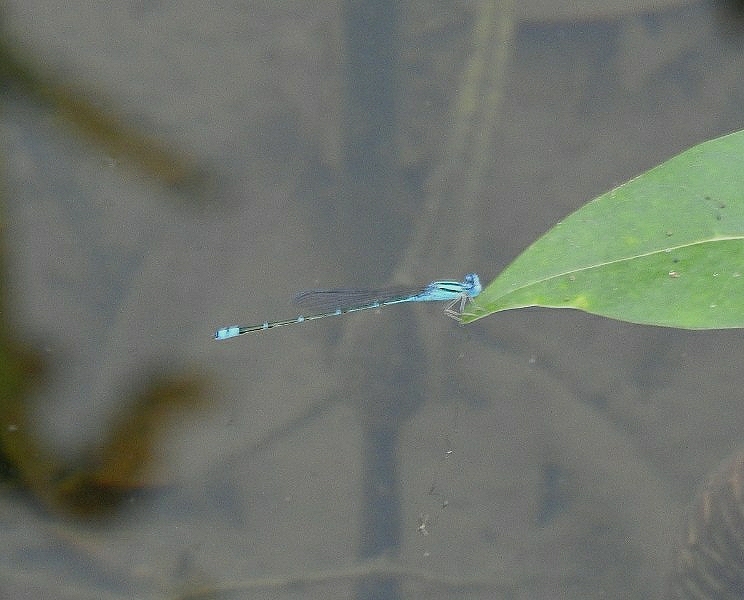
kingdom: Animalia
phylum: Arthropoda
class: Insecta
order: Odonata
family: Coenagrionidae
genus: Pseudagrion
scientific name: Pseudagrion microcephalum
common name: Blue riverdamsel
